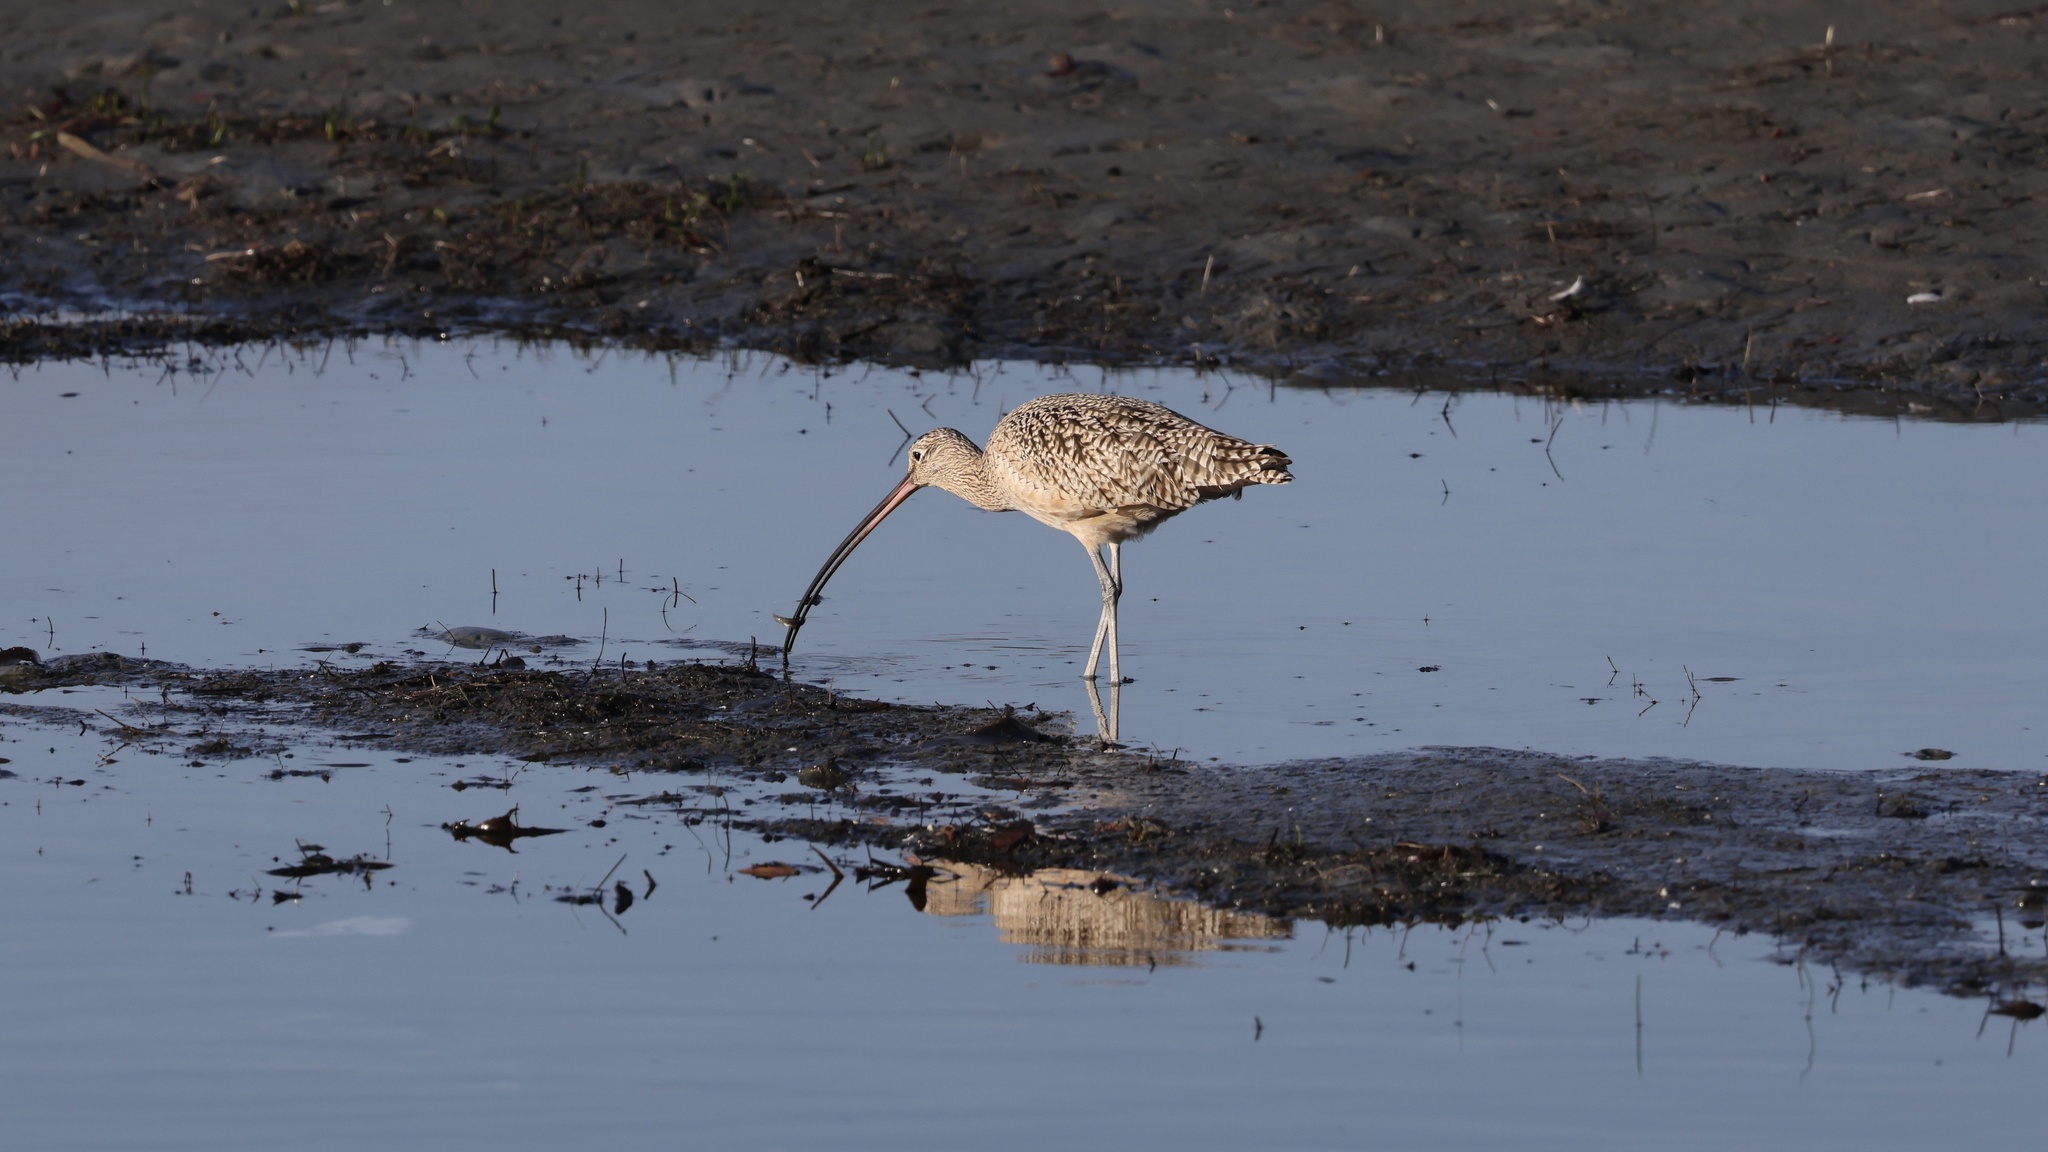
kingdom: Animalia
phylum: Chordata
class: Aves
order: Charadriiformes
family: Scolopacidae
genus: Numenius
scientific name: Numenius americanus
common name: Long-billed curlew
